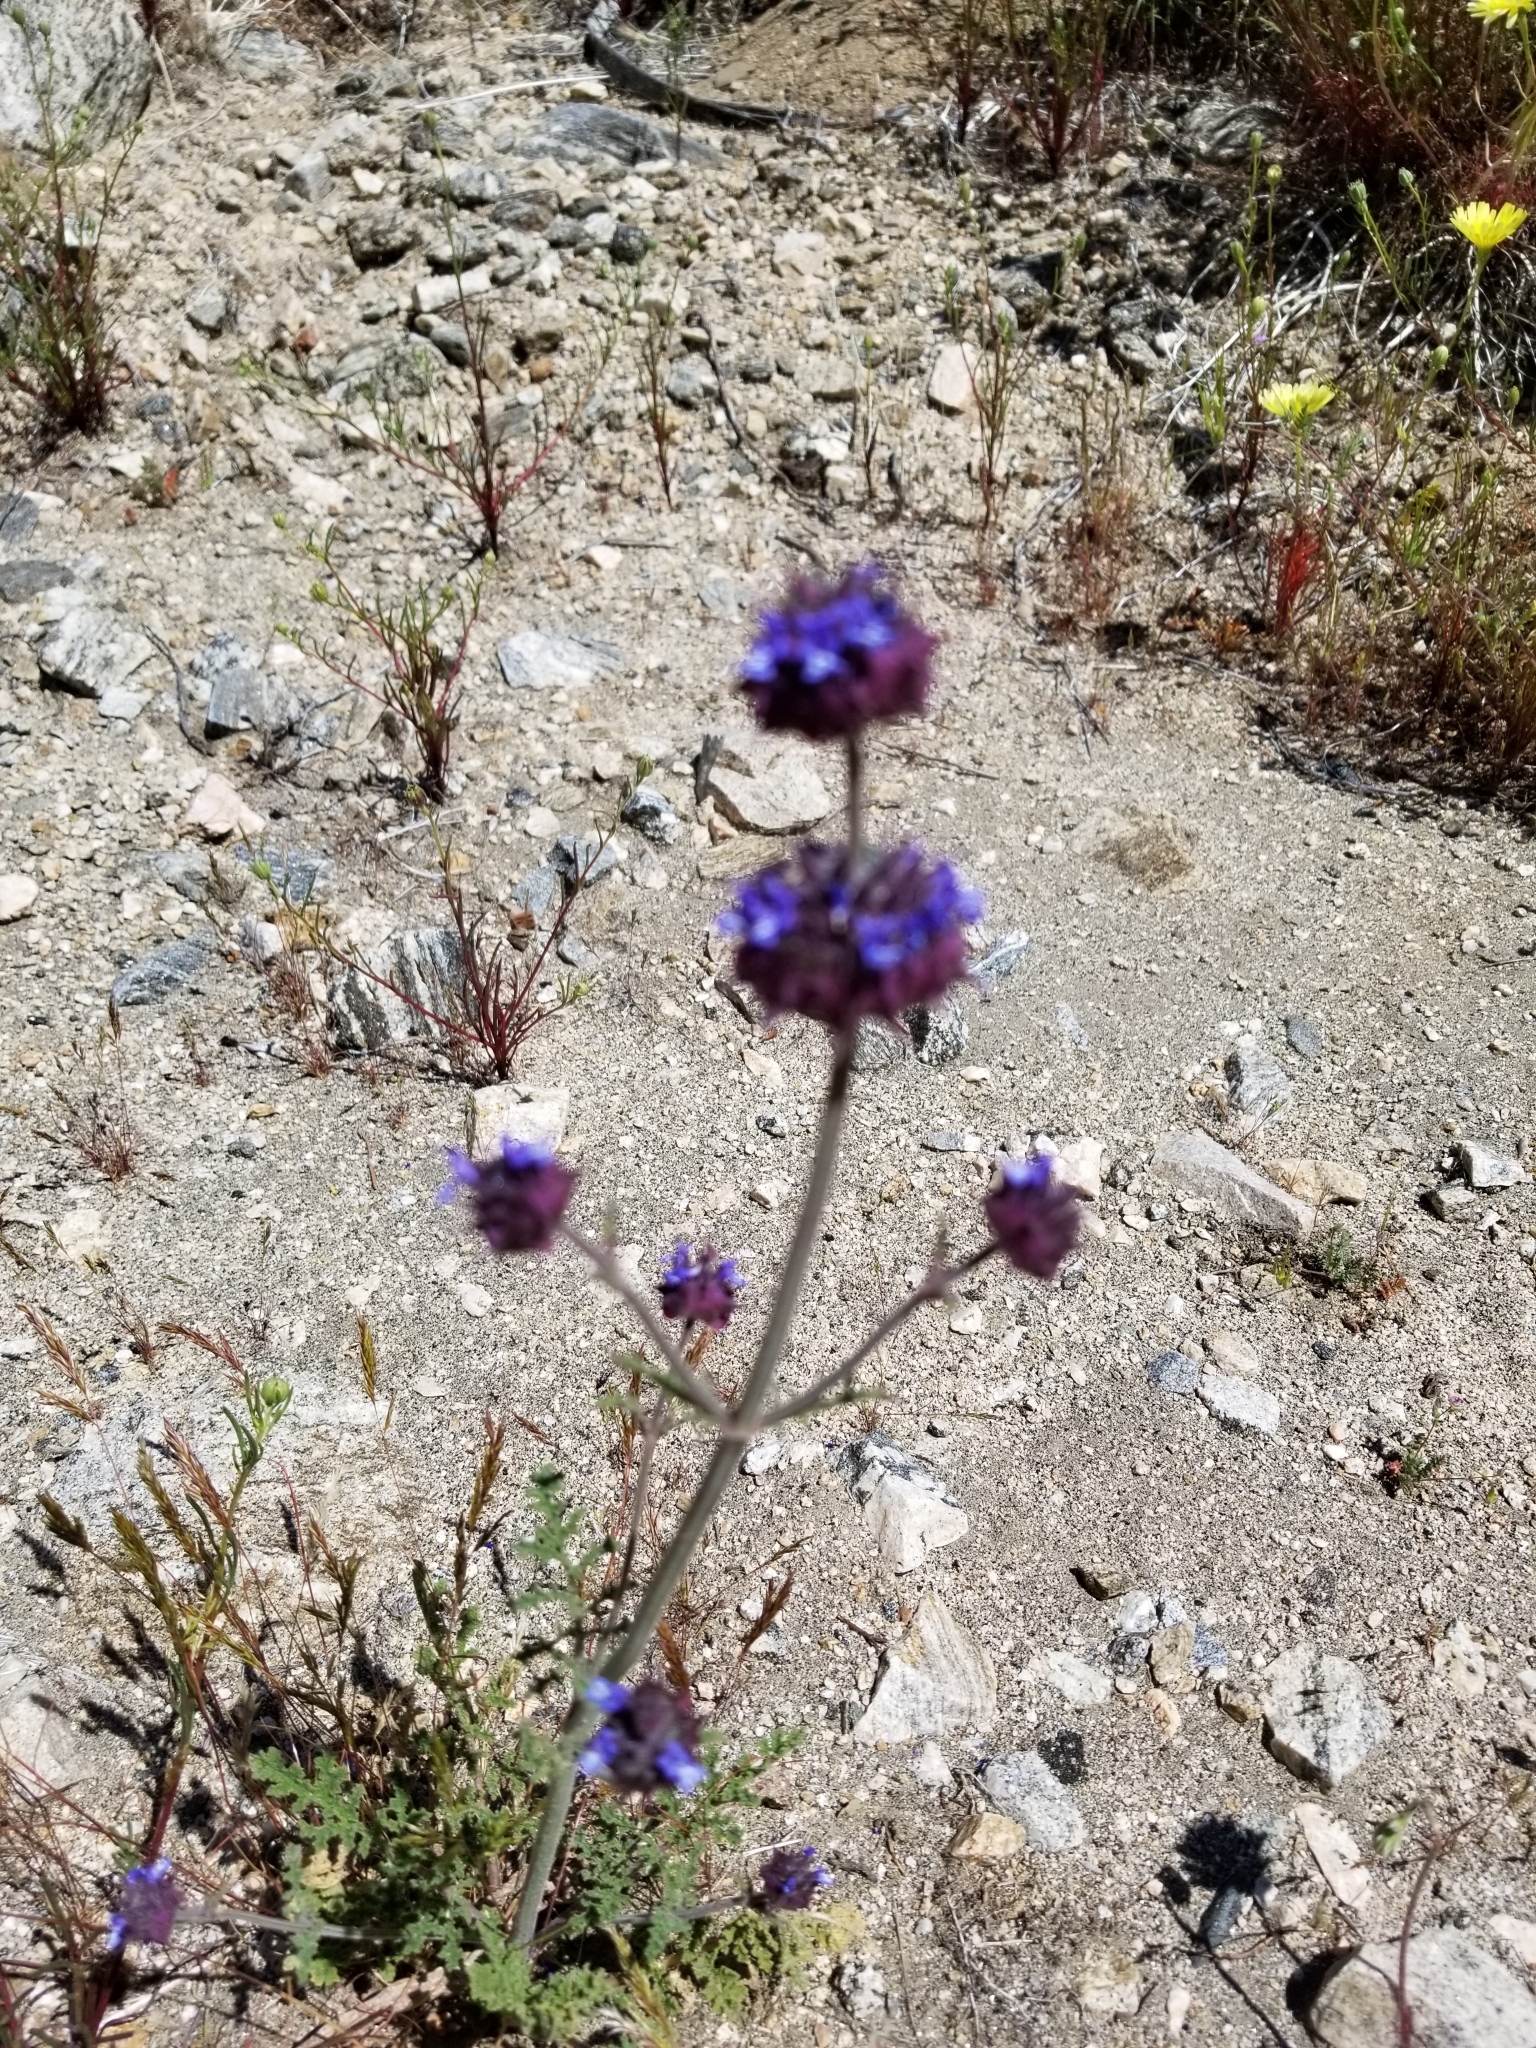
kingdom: Plantae
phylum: Tracheophyta
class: Magnoliopsida
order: Lamiales
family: Lamiaceae
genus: Salvia
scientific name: Salvia columbariae
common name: Chia
